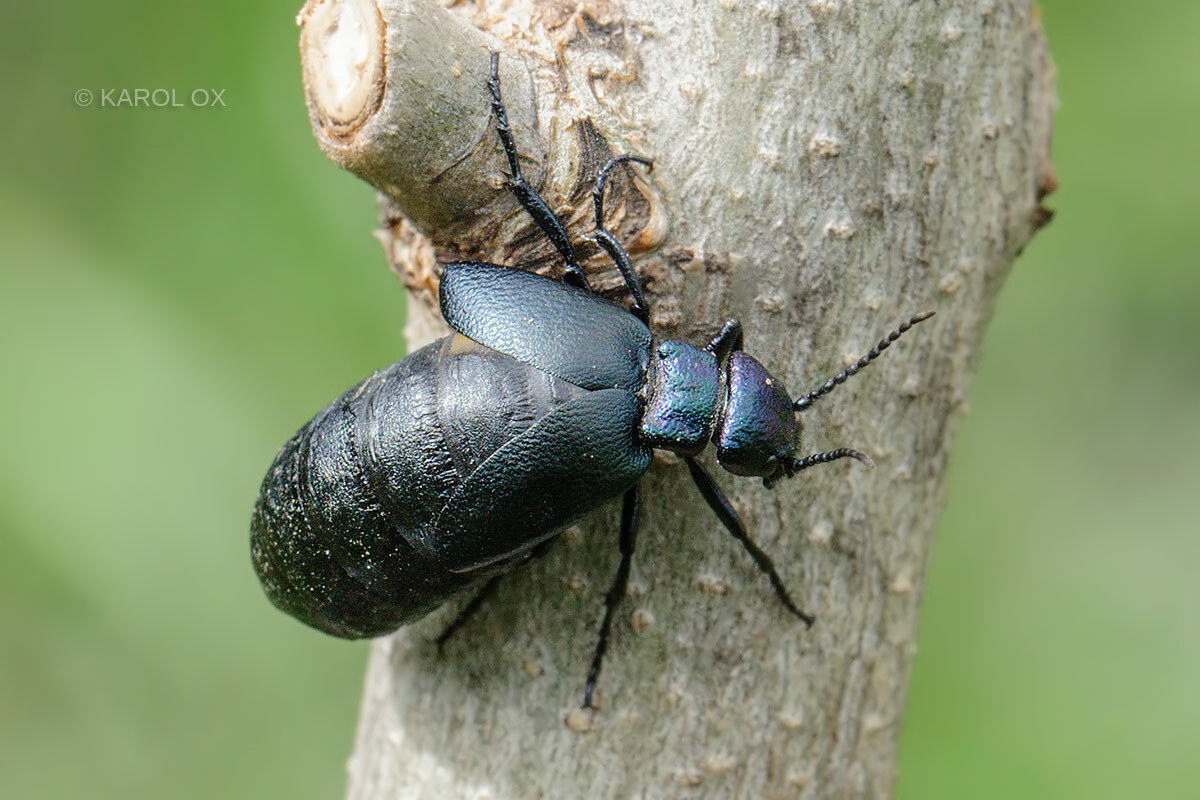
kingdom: Animalia
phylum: Arthropoda
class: Insecta
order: Coleoptera
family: Meloidae
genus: Meloe
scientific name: Meloe decorus
